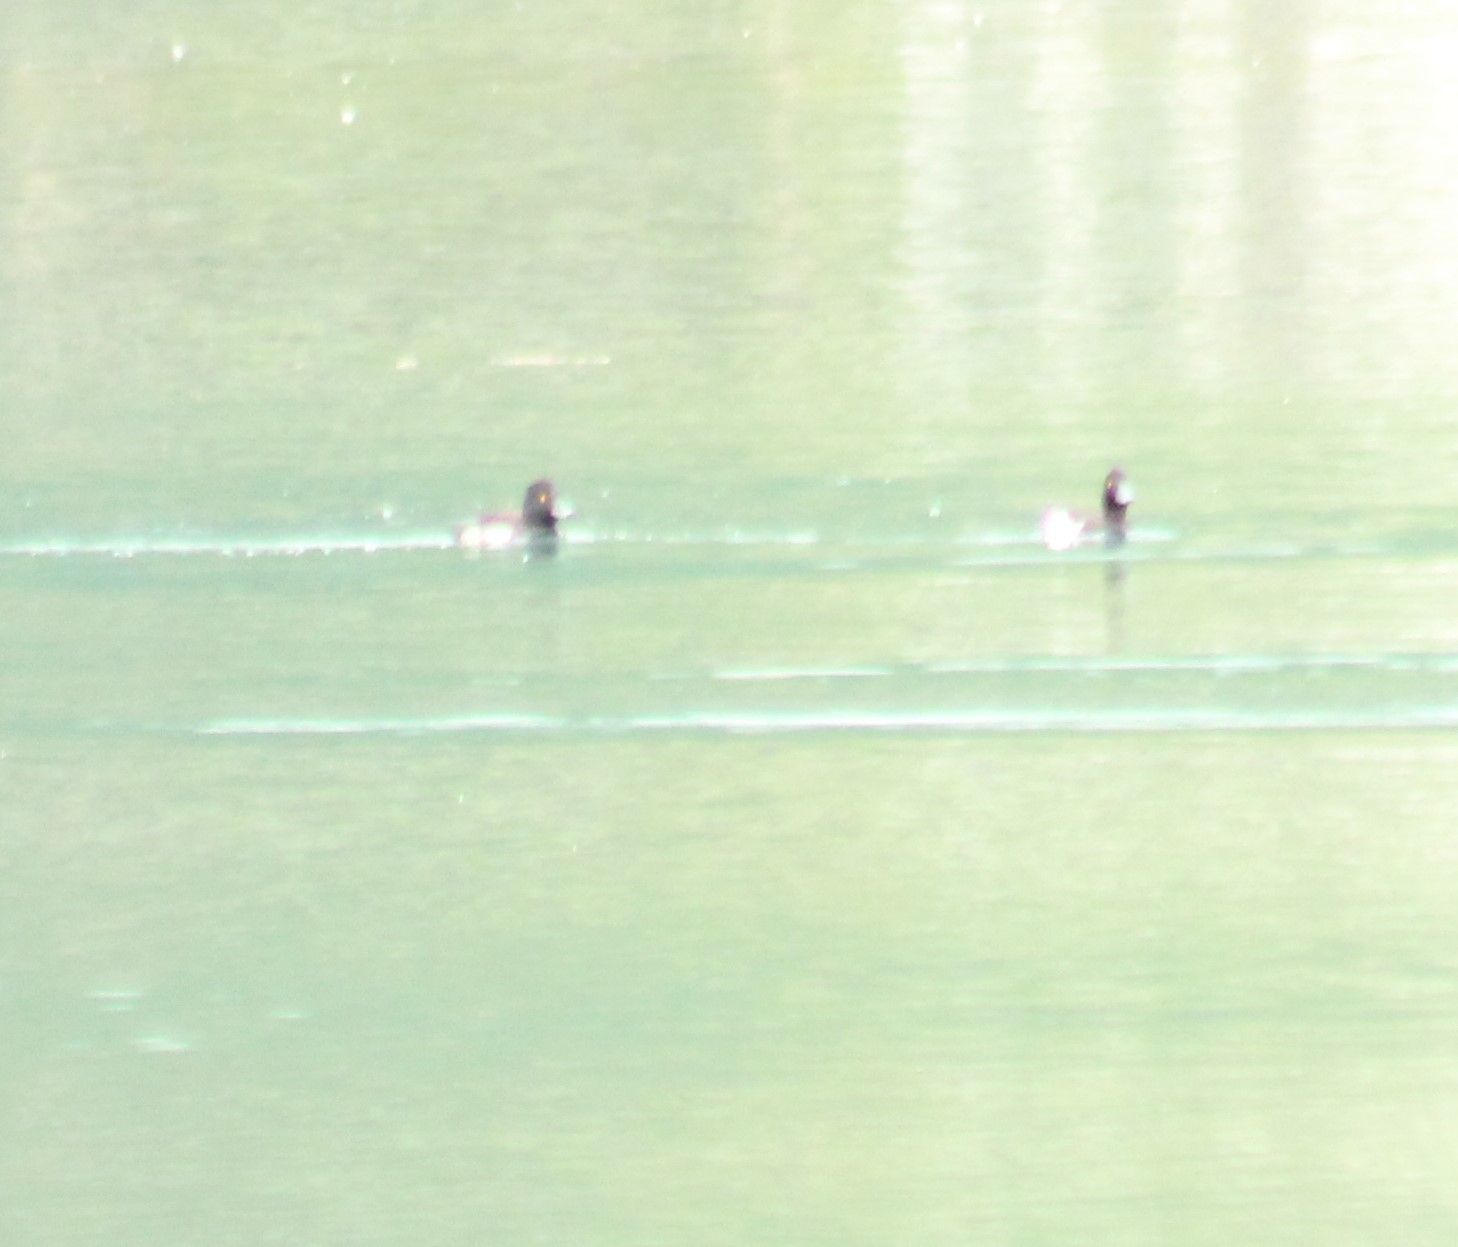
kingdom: Animalia
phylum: Chordata
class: Aves
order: Anseriformes
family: Anatidae
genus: Aythya
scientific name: Aythya fuligula
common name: Tufted duck
